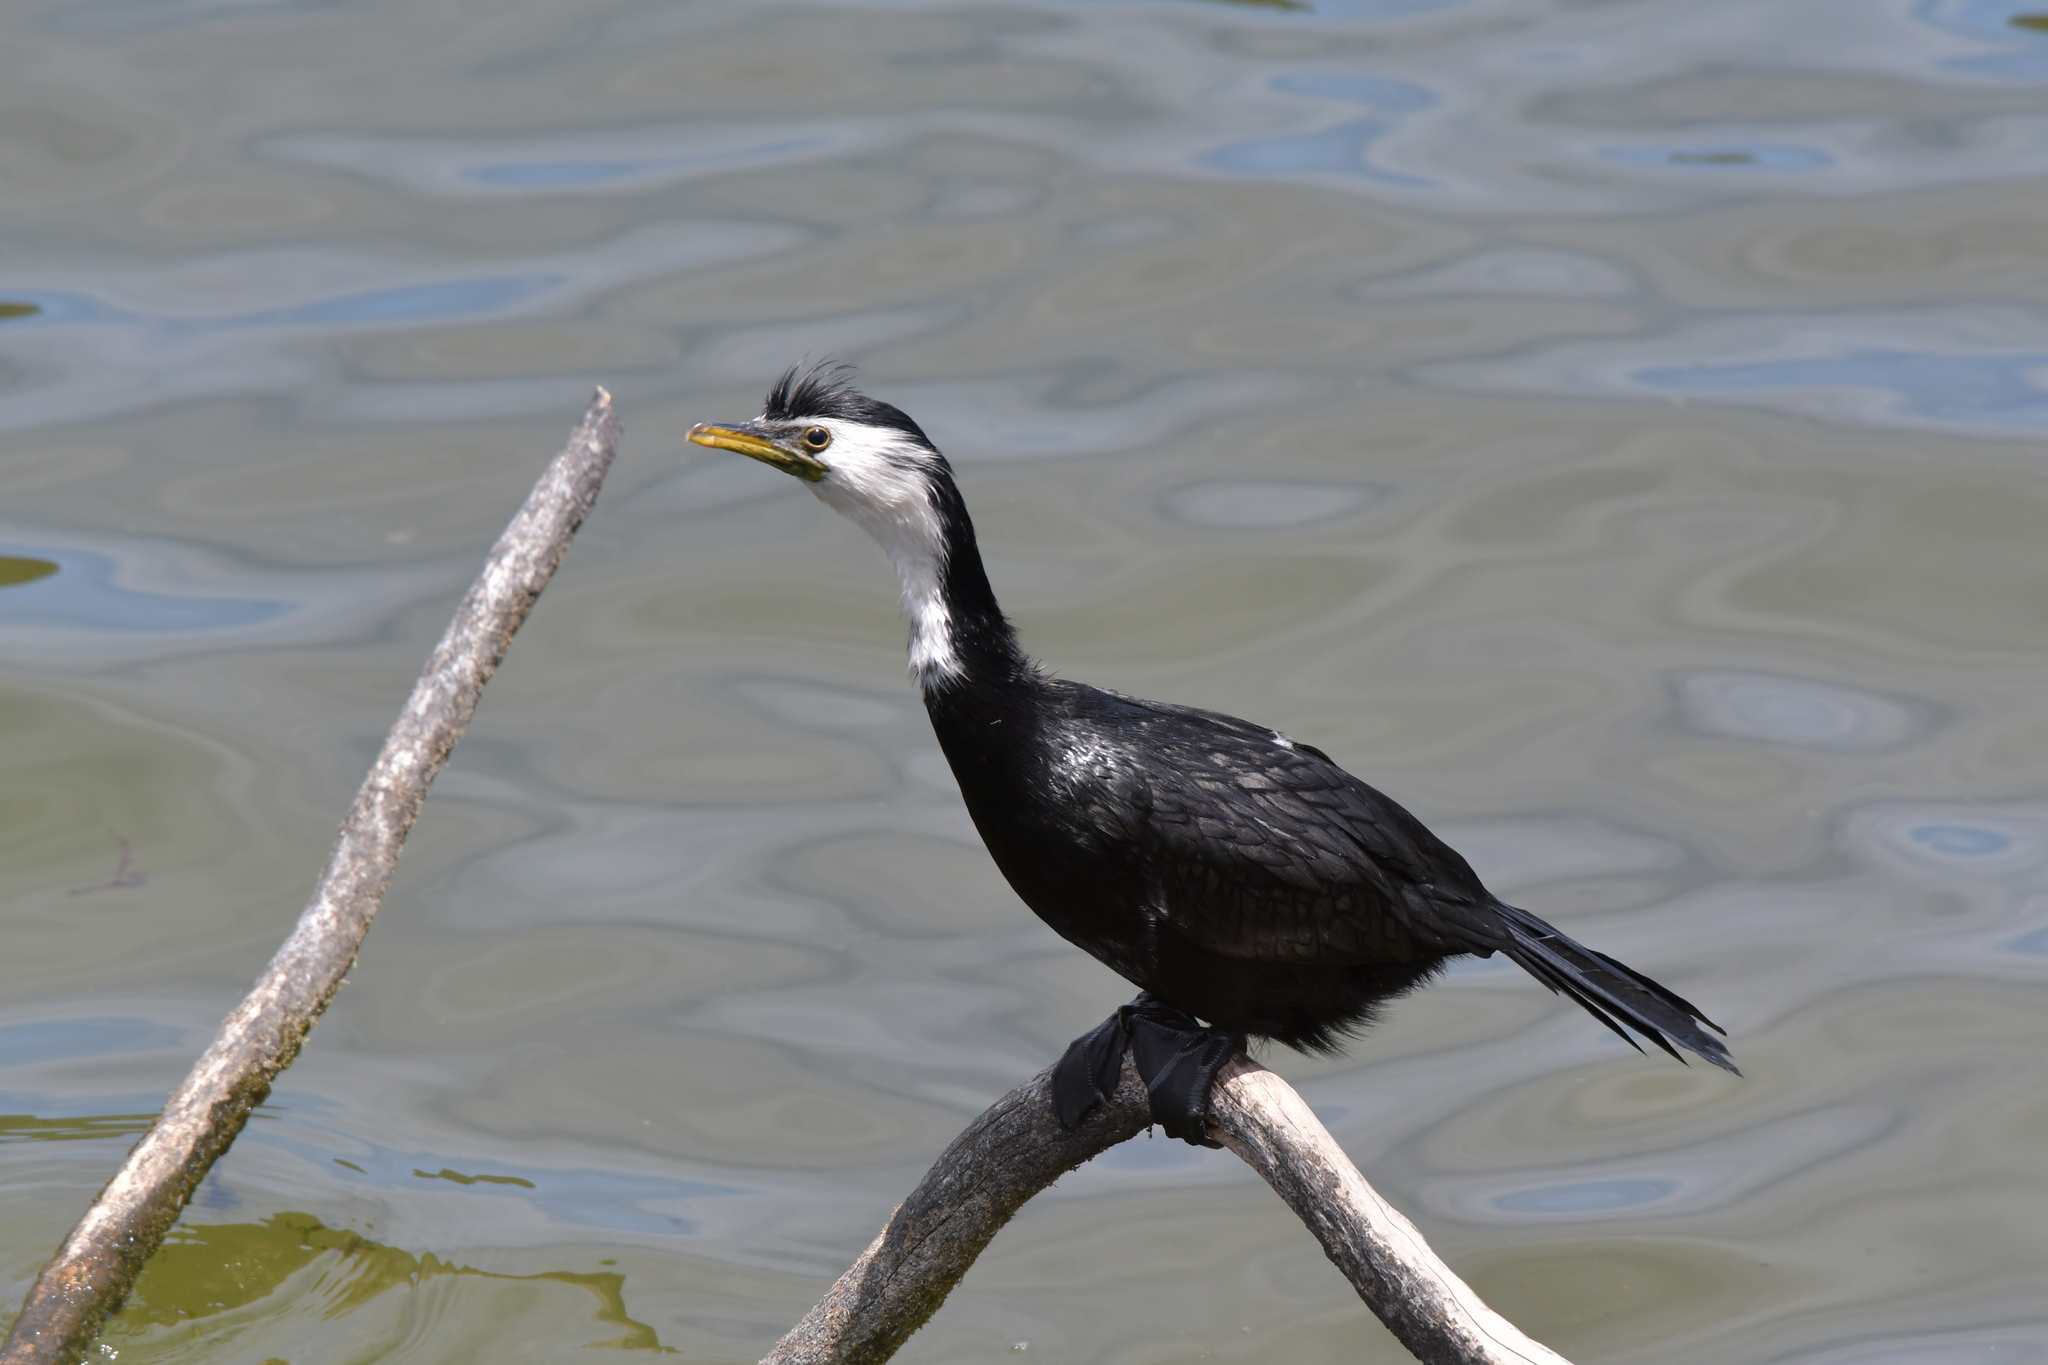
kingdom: Animalia
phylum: Chordata
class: Aves
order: Suliformes
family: Phalacrocoracidae
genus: Microcarbo
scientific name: Microcarbo melanoleucos
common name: Little pied cormorant
